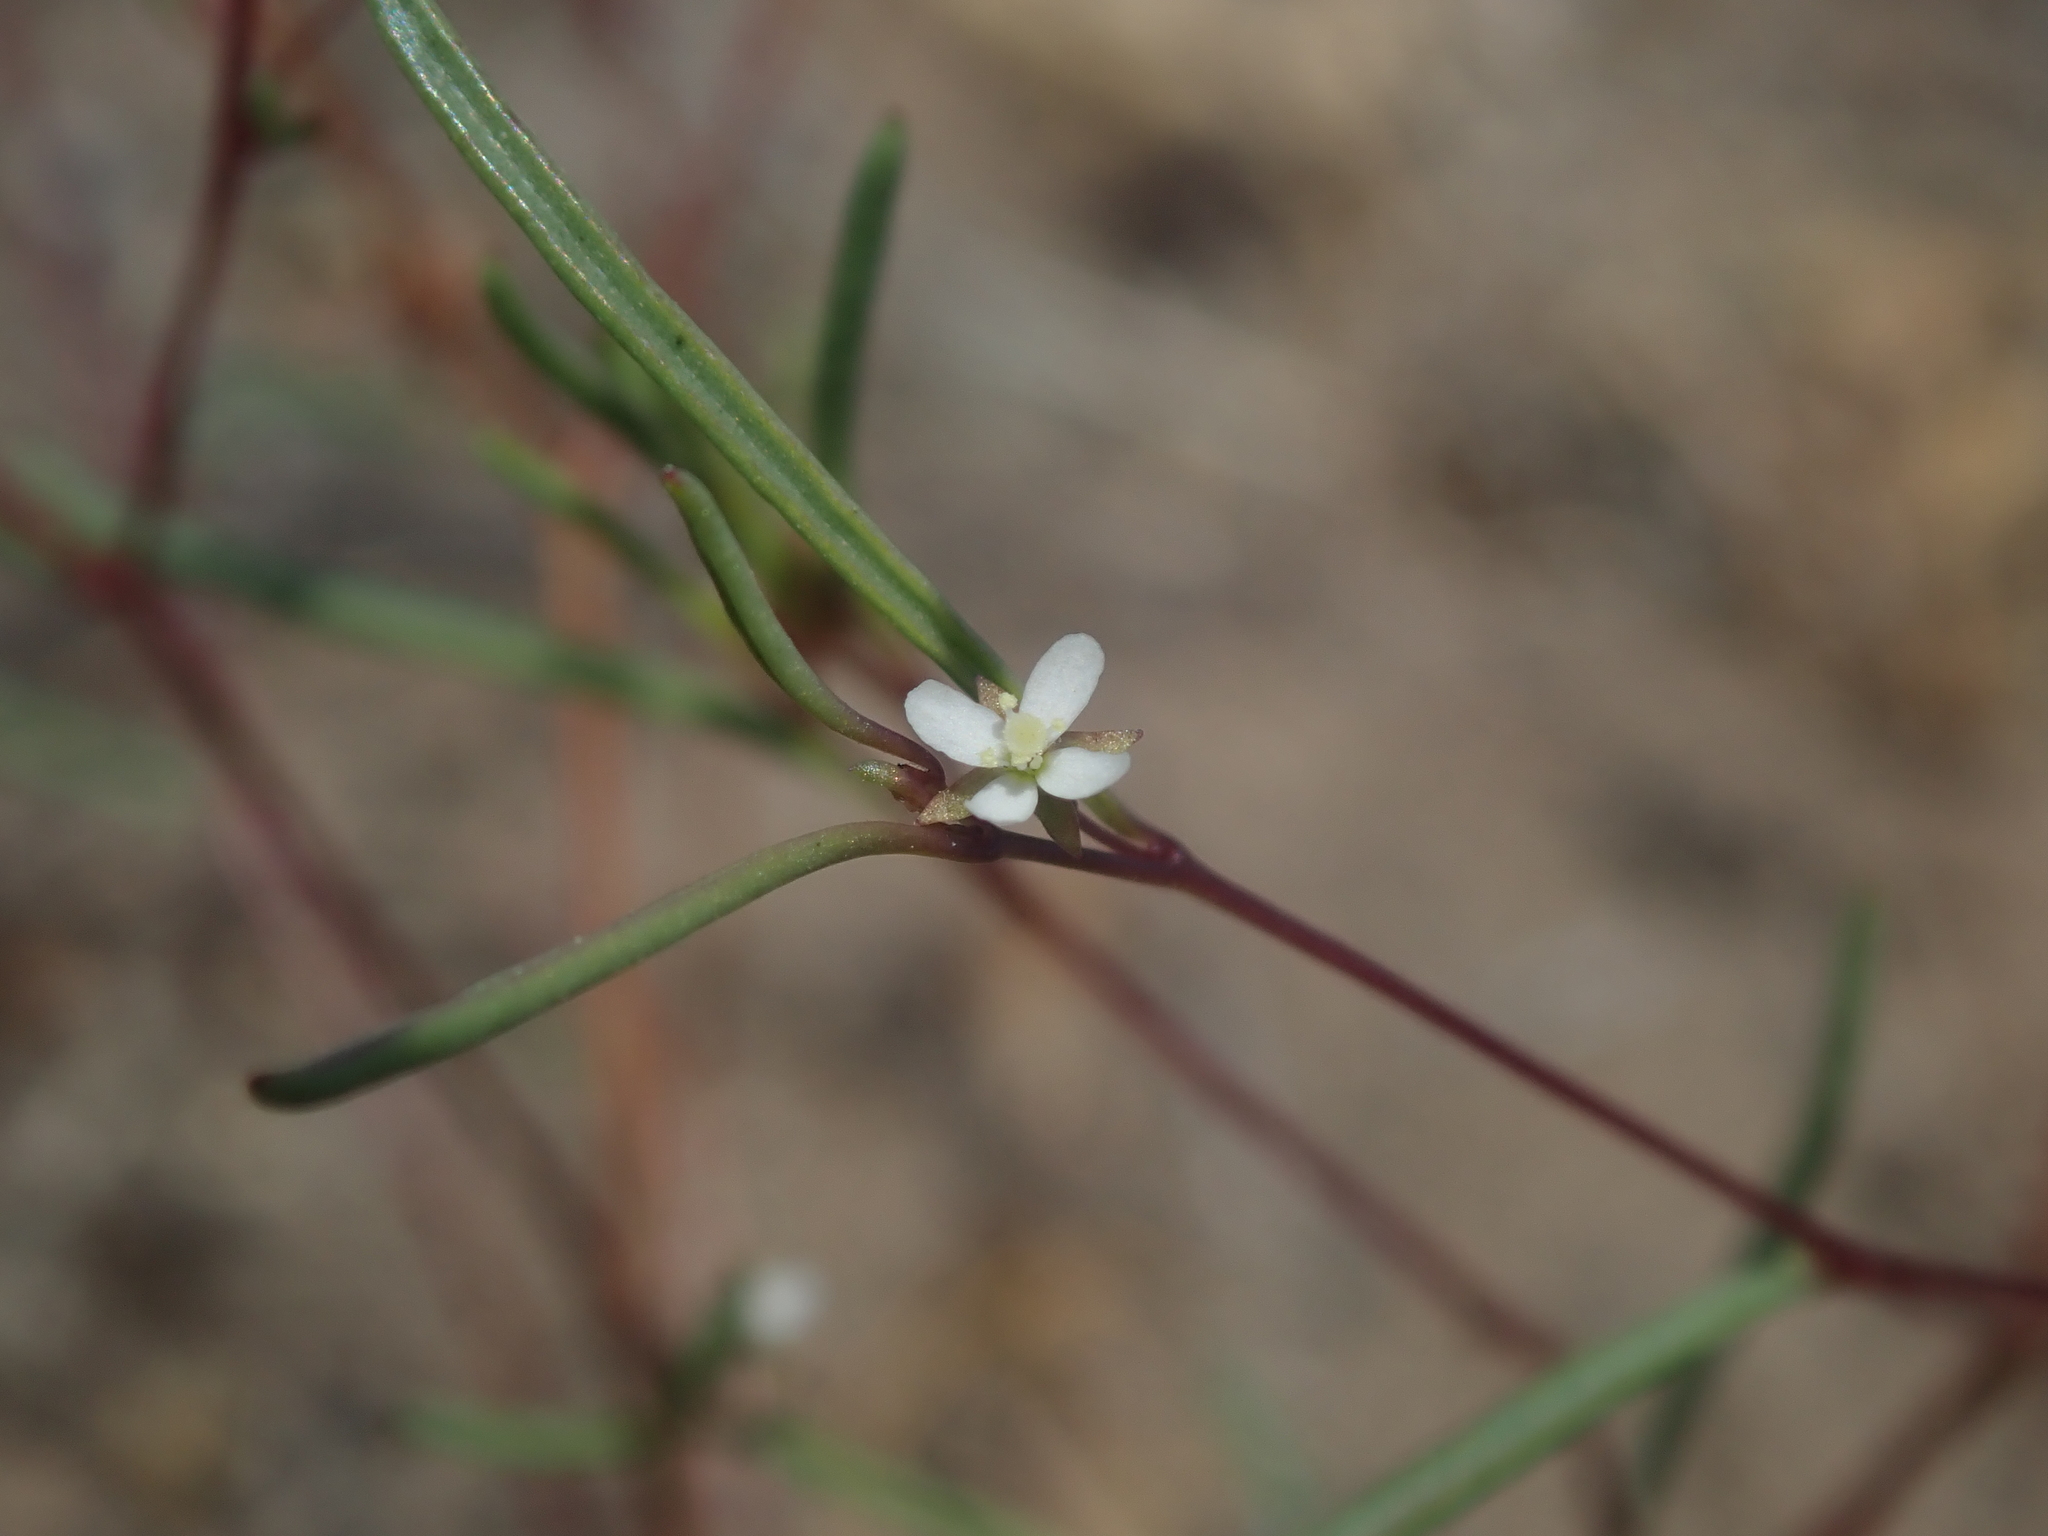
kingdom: Plantae
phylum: Tracheophyta
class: Magnoliopsida
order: Myrtales
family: Onagraceae
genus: Gayophytum
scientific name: Gayophytum ramosissimum
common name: Hairstem groundsmoke
